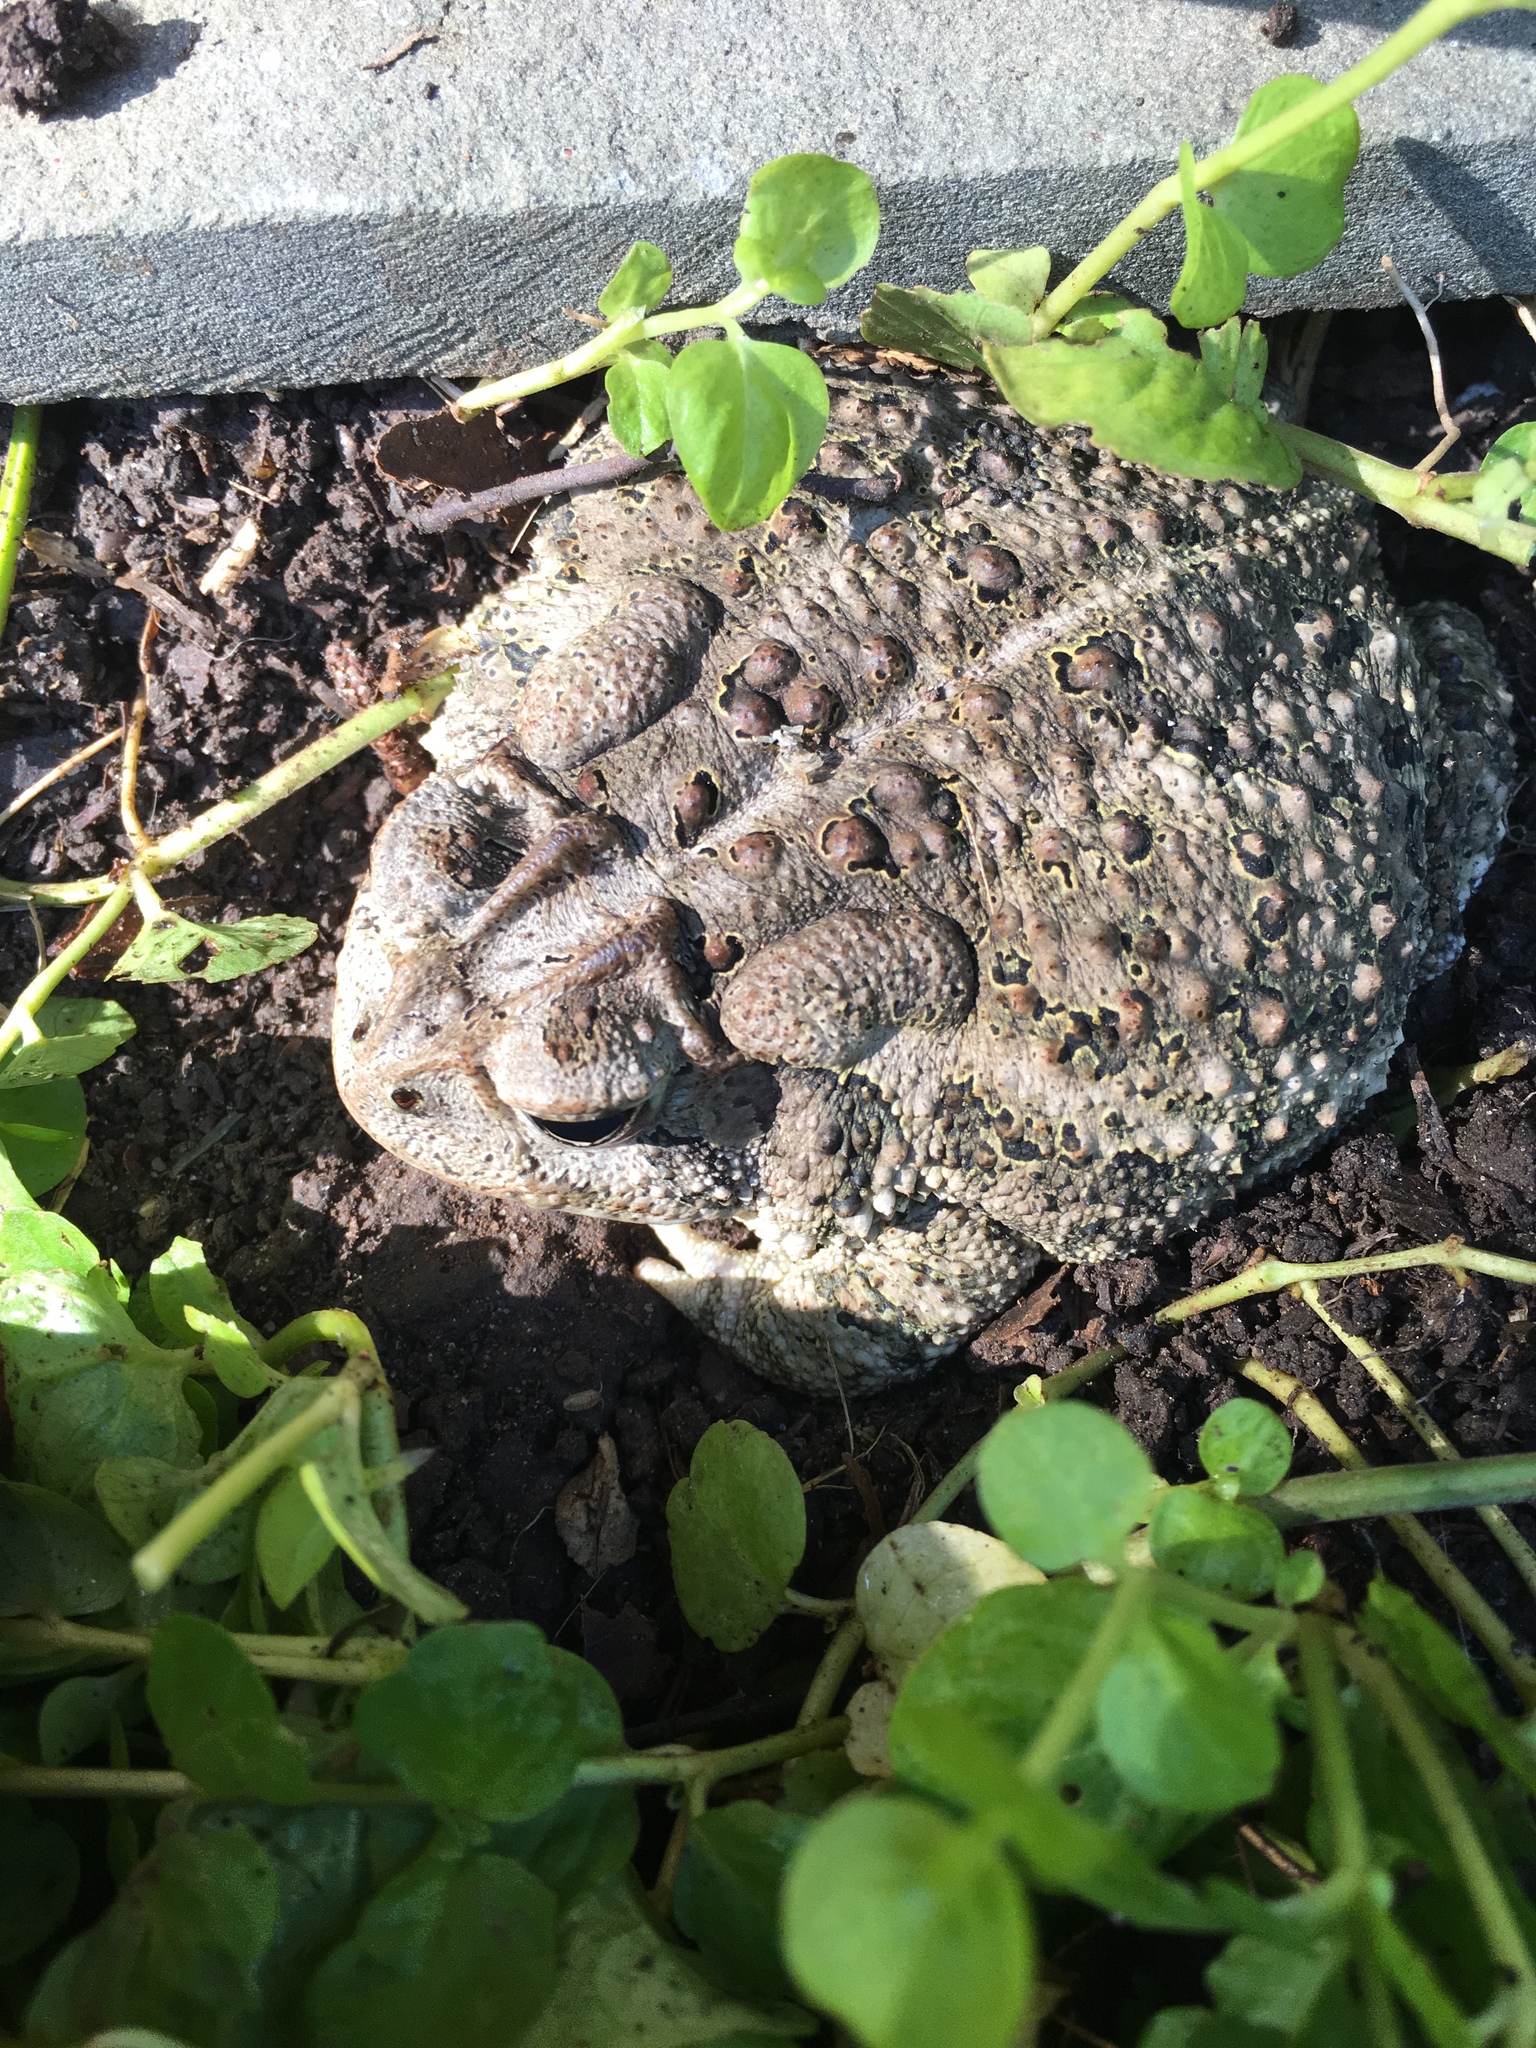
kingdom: Animalia
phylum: Chordata
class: Amphibia
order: Anura
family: Bufonidae
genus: Anaxyrus
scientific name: Anaxyrus terrestris
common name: Southern toad
